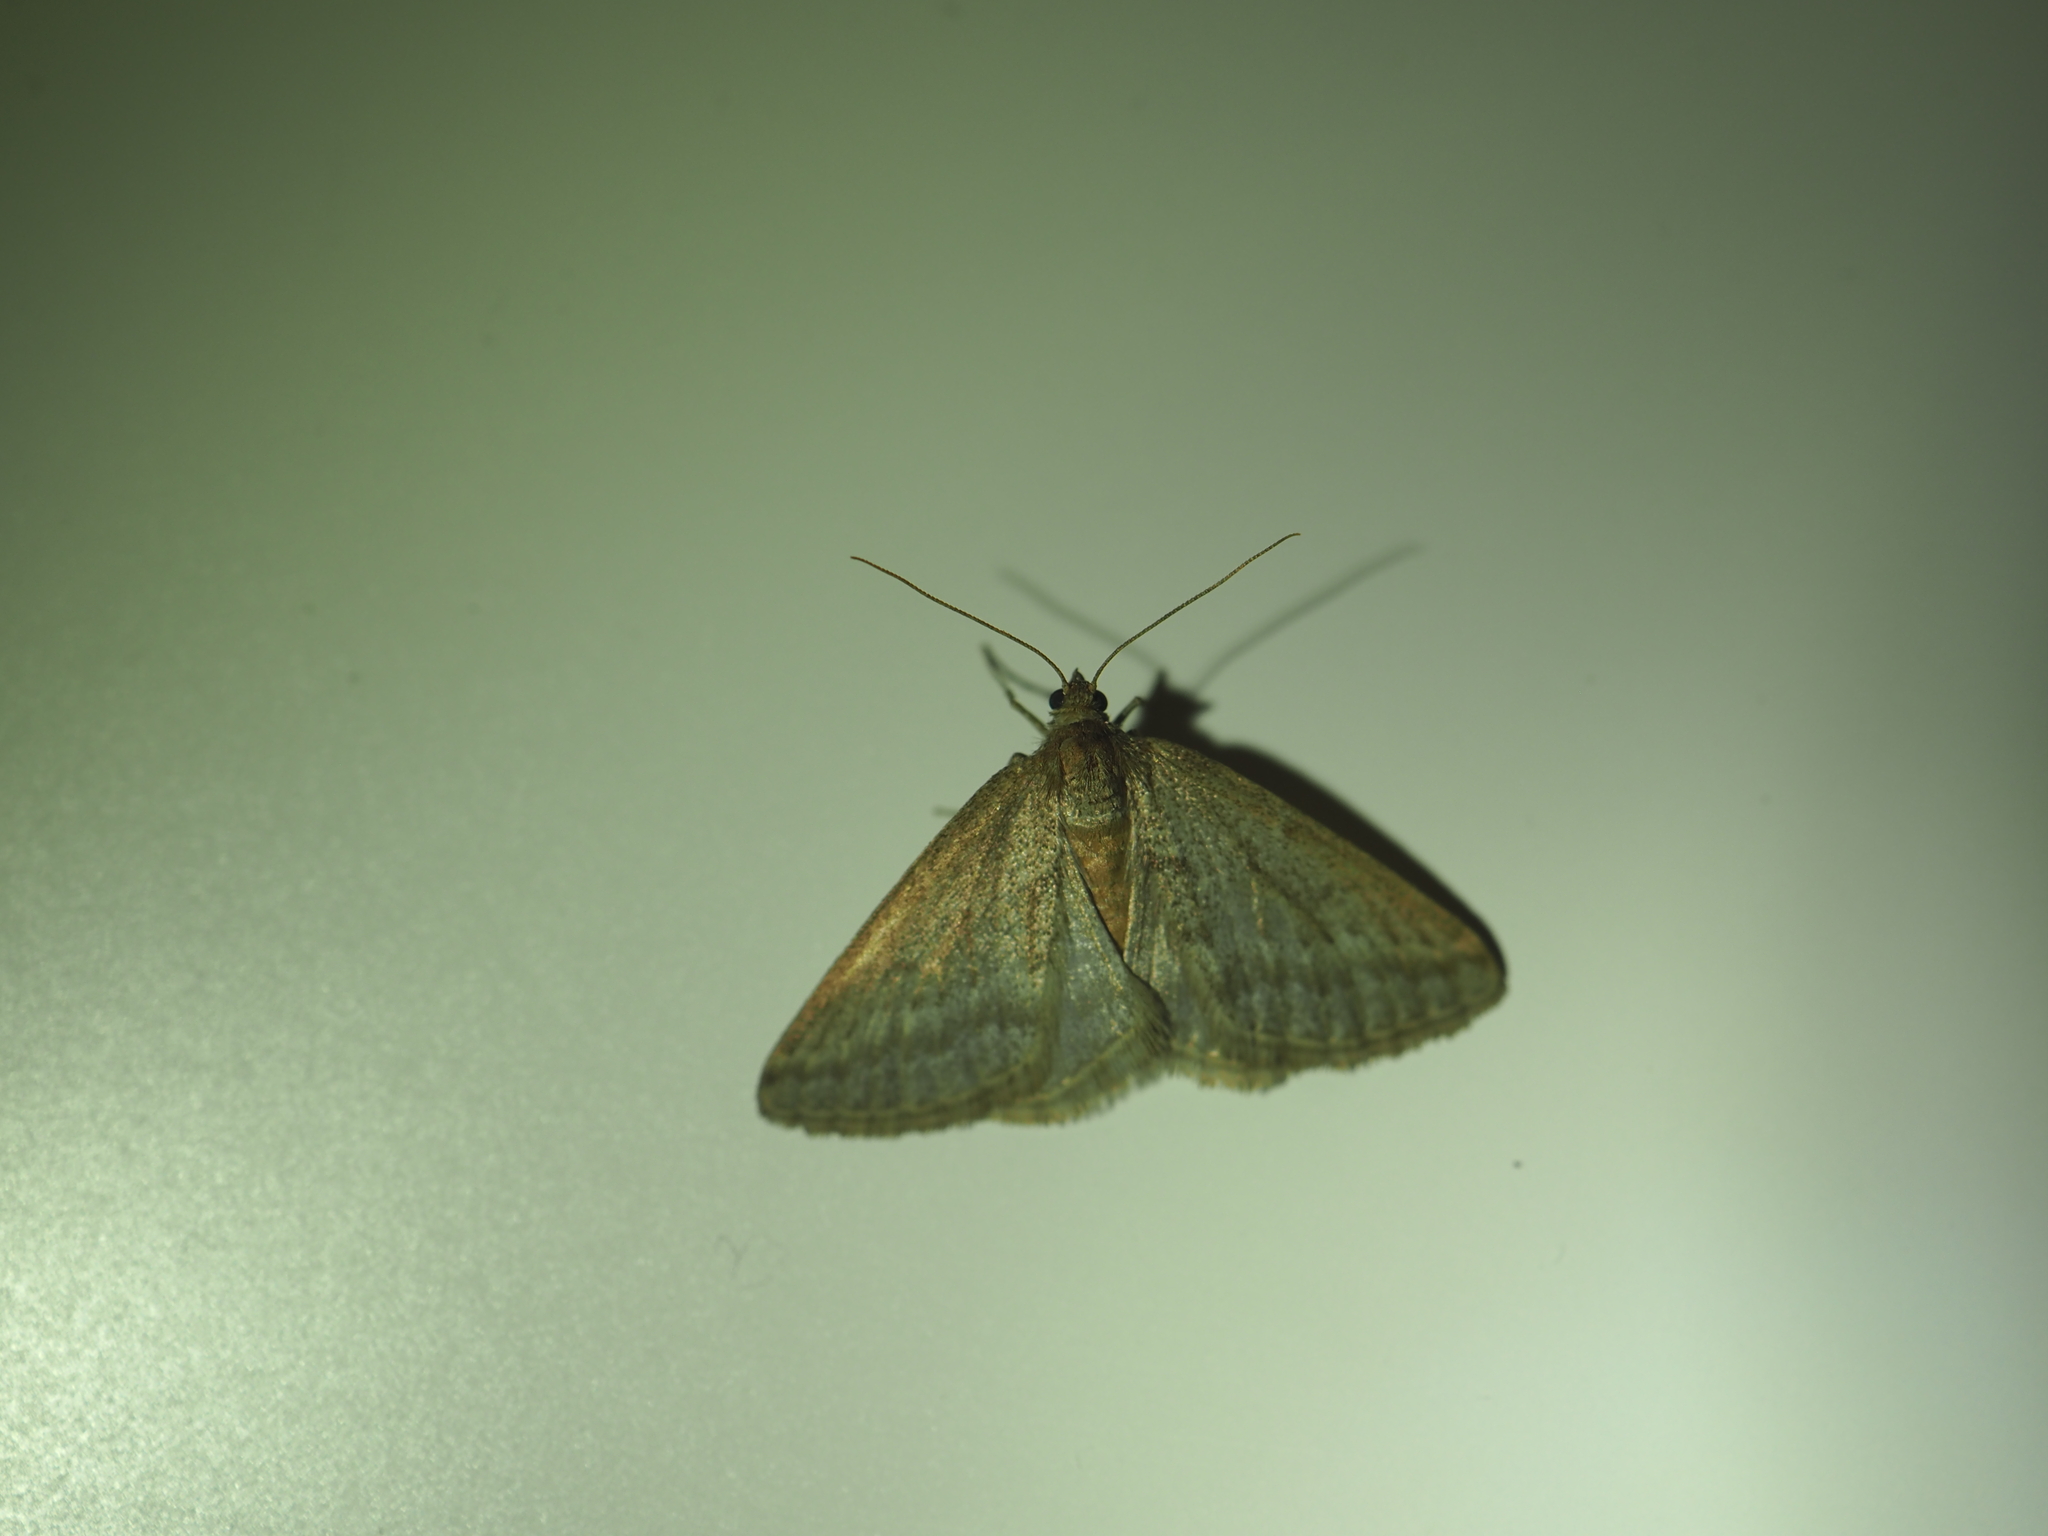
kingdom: Animalia
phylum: Arthropoda
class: Insecta
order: Lepidoptera
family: Geometridae
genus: Aglossophanes
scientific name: Aglossophanes adoxima
